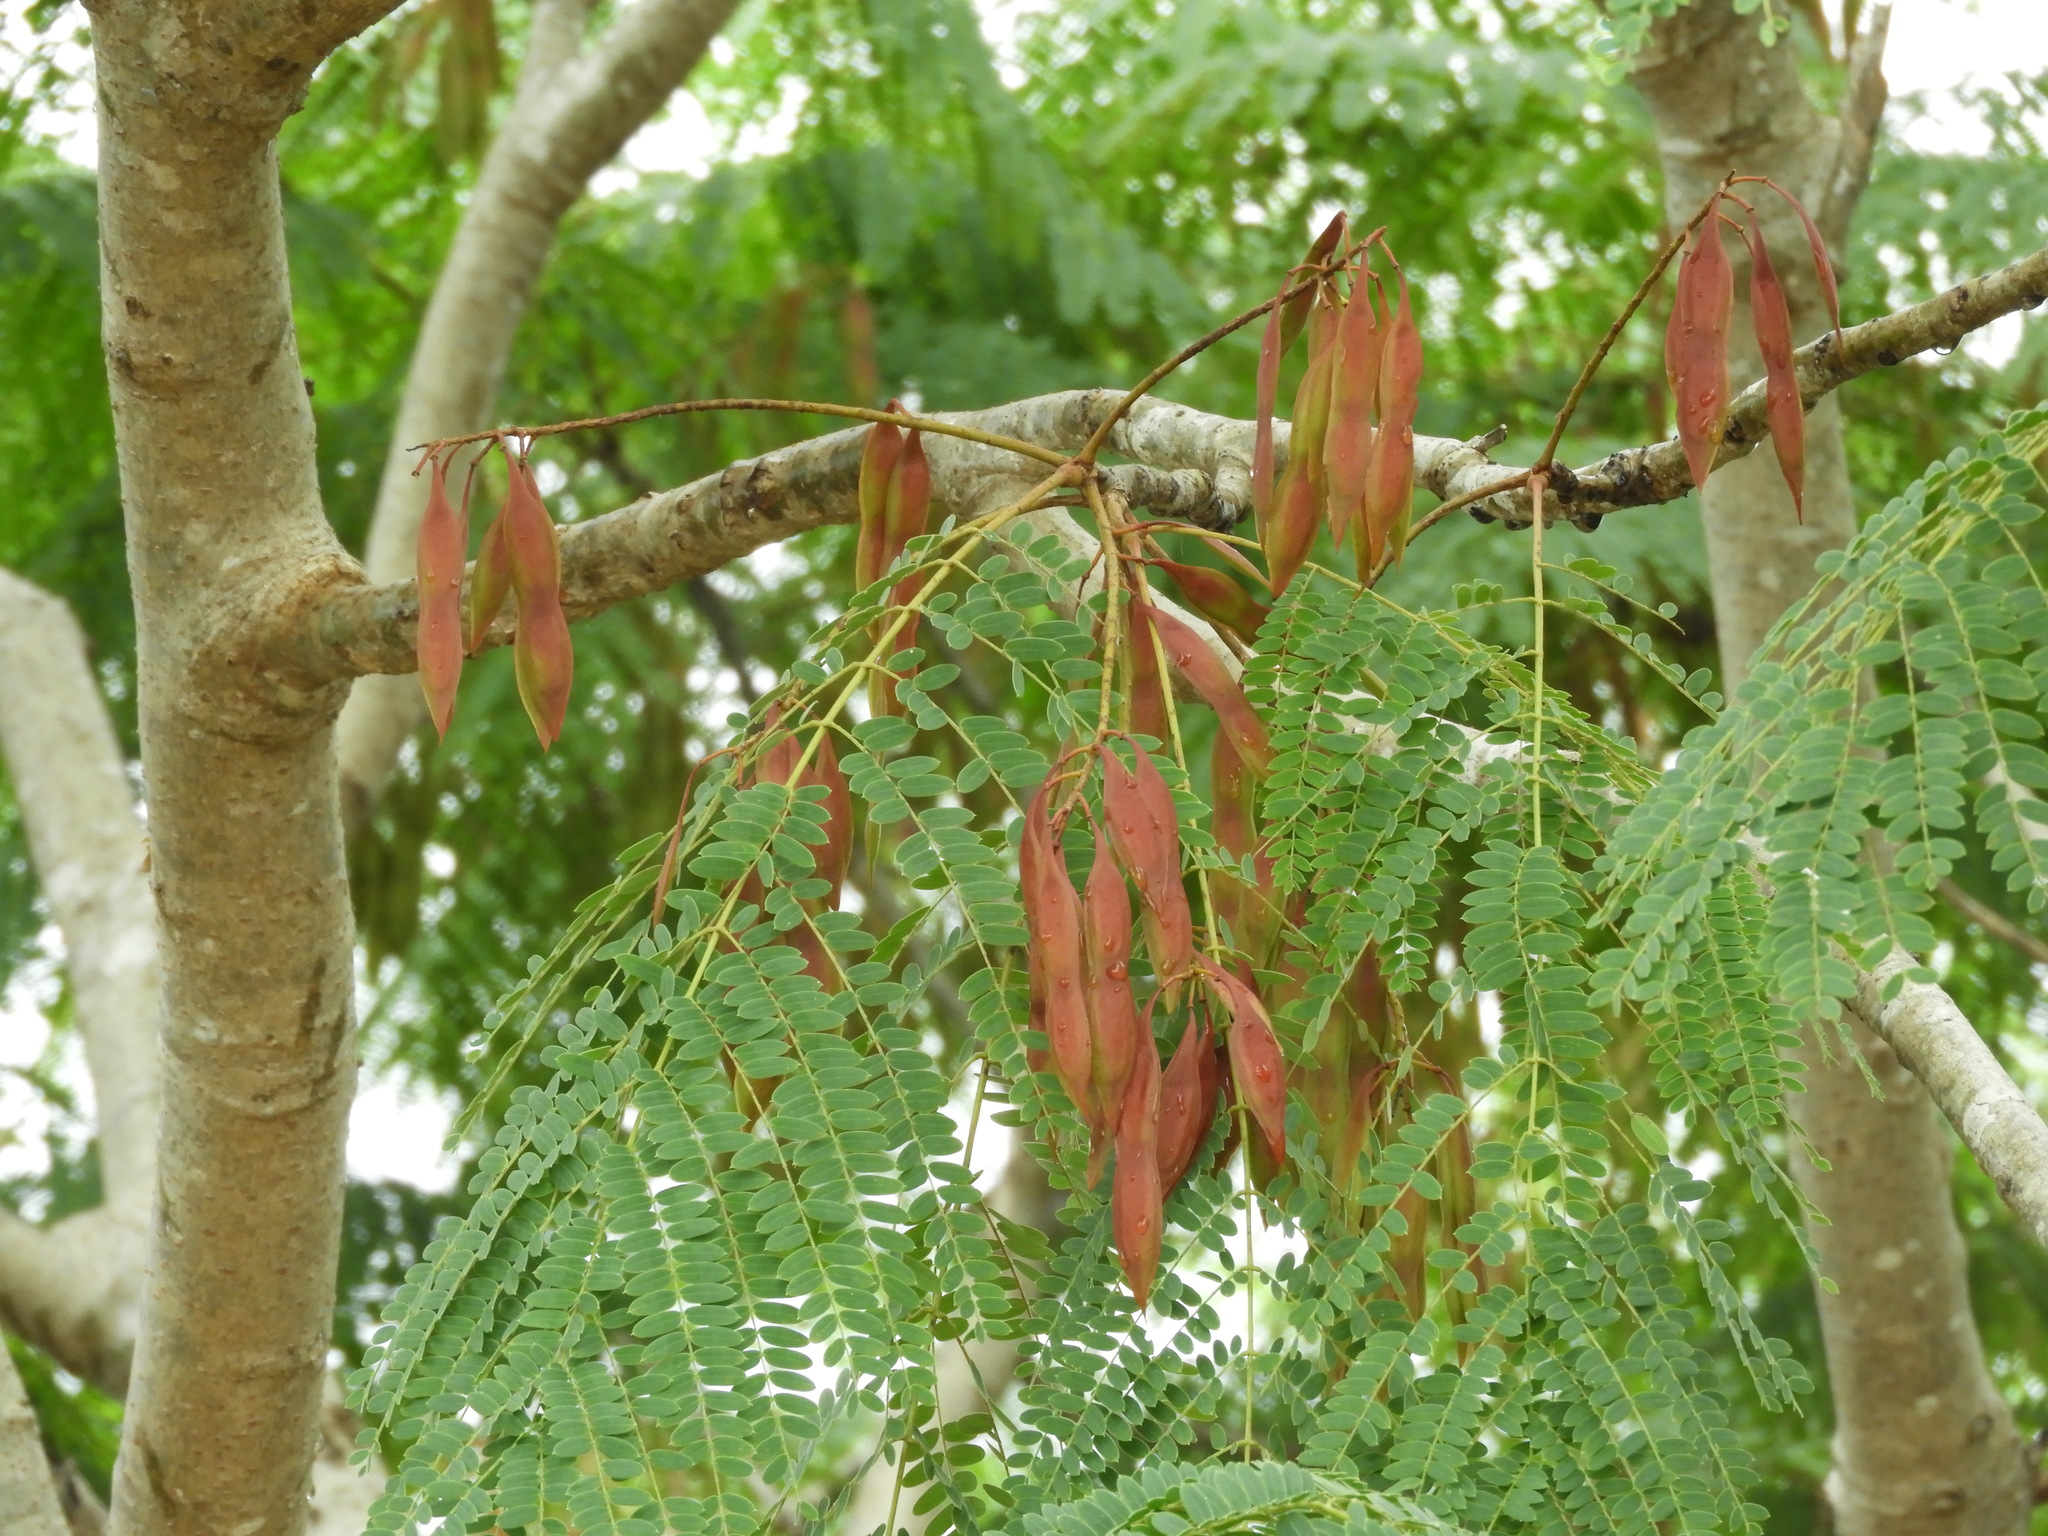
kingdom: Plantae
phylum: Tracheophyta
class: Magnoliopsida
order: Fabales
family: Fabaceae
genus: Conzattia
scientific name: Conzattia sericea
